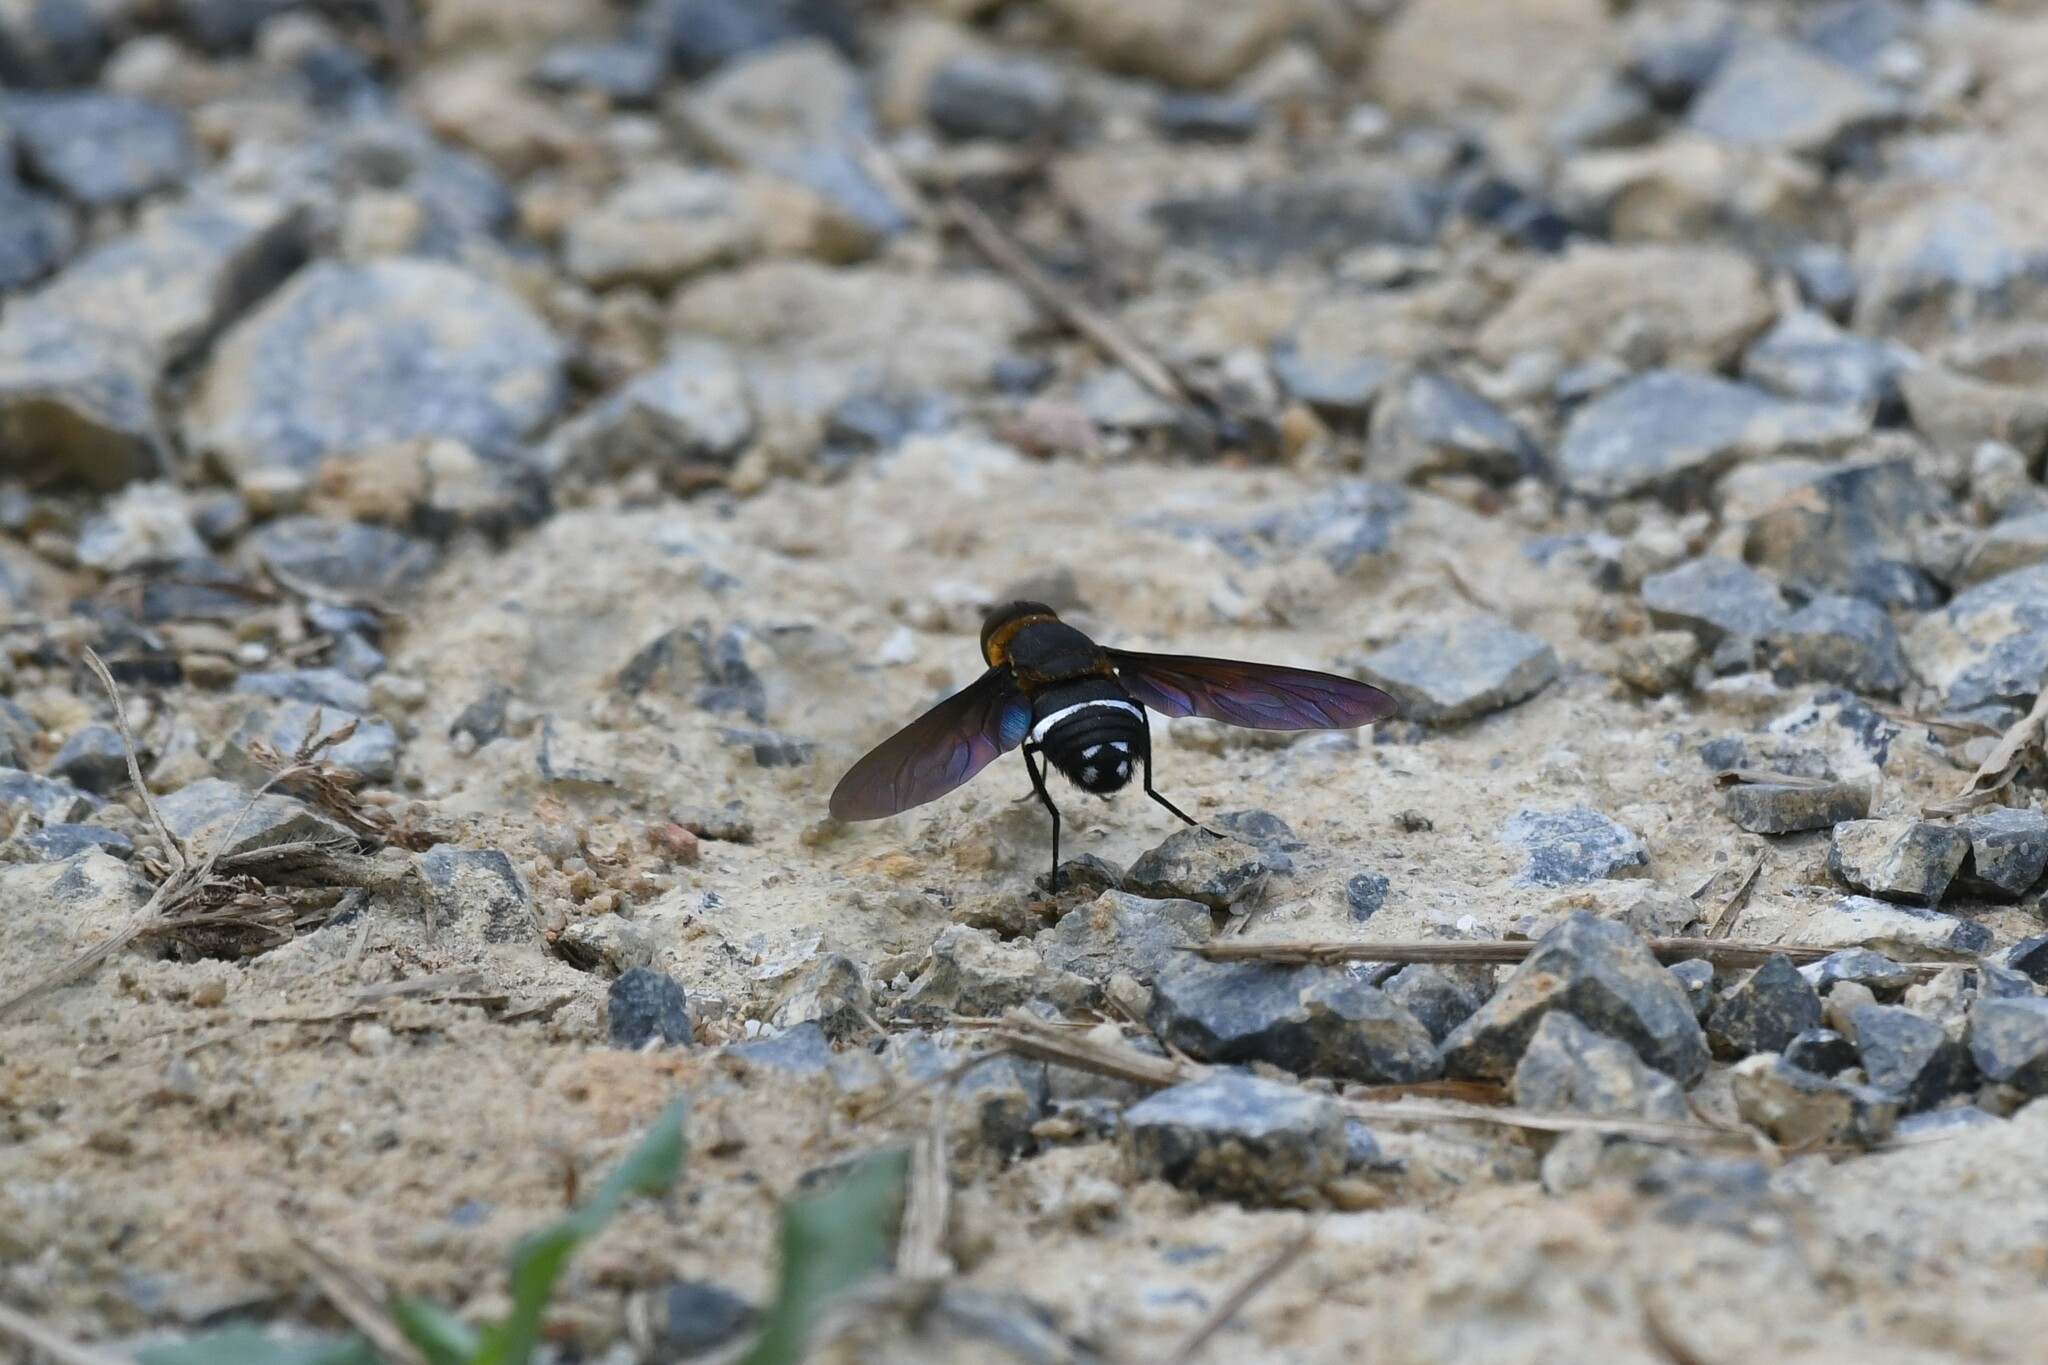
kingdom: Animalia
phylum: Arthropoda
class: Insecta
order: Diptera
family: Bombyliidae
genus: Ligyra
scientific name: Ligyra tantalus
